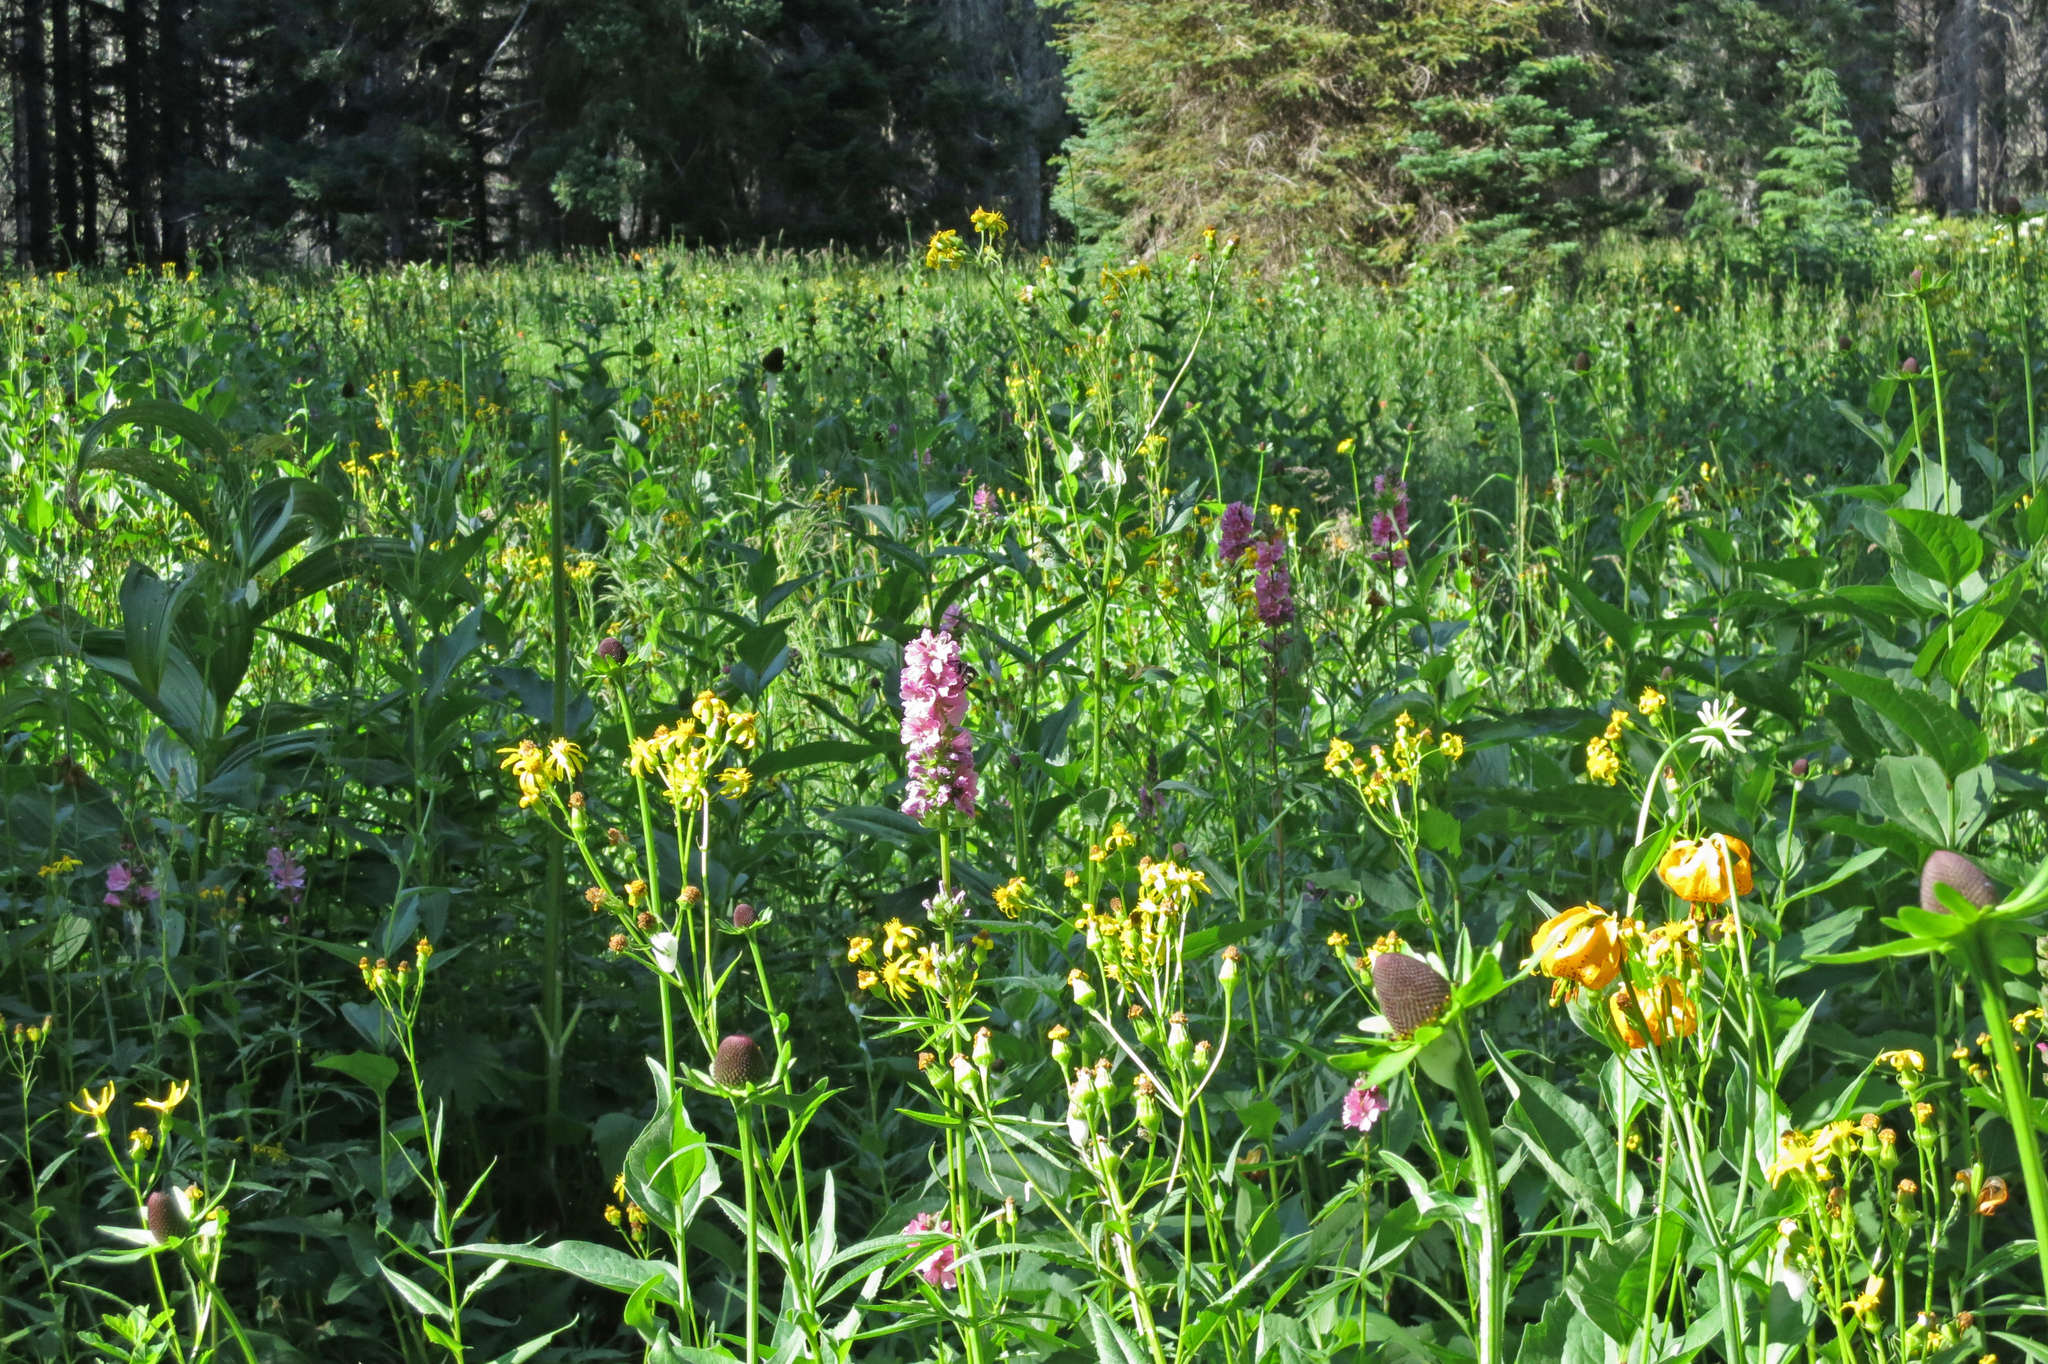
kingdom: Plantae
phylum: Tracheophyta
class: Magnoliopsida
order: Malvales
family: Malvaceae
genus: Sidalcea
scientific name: Sidalcea oregana
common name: Oregon checker-mallow
